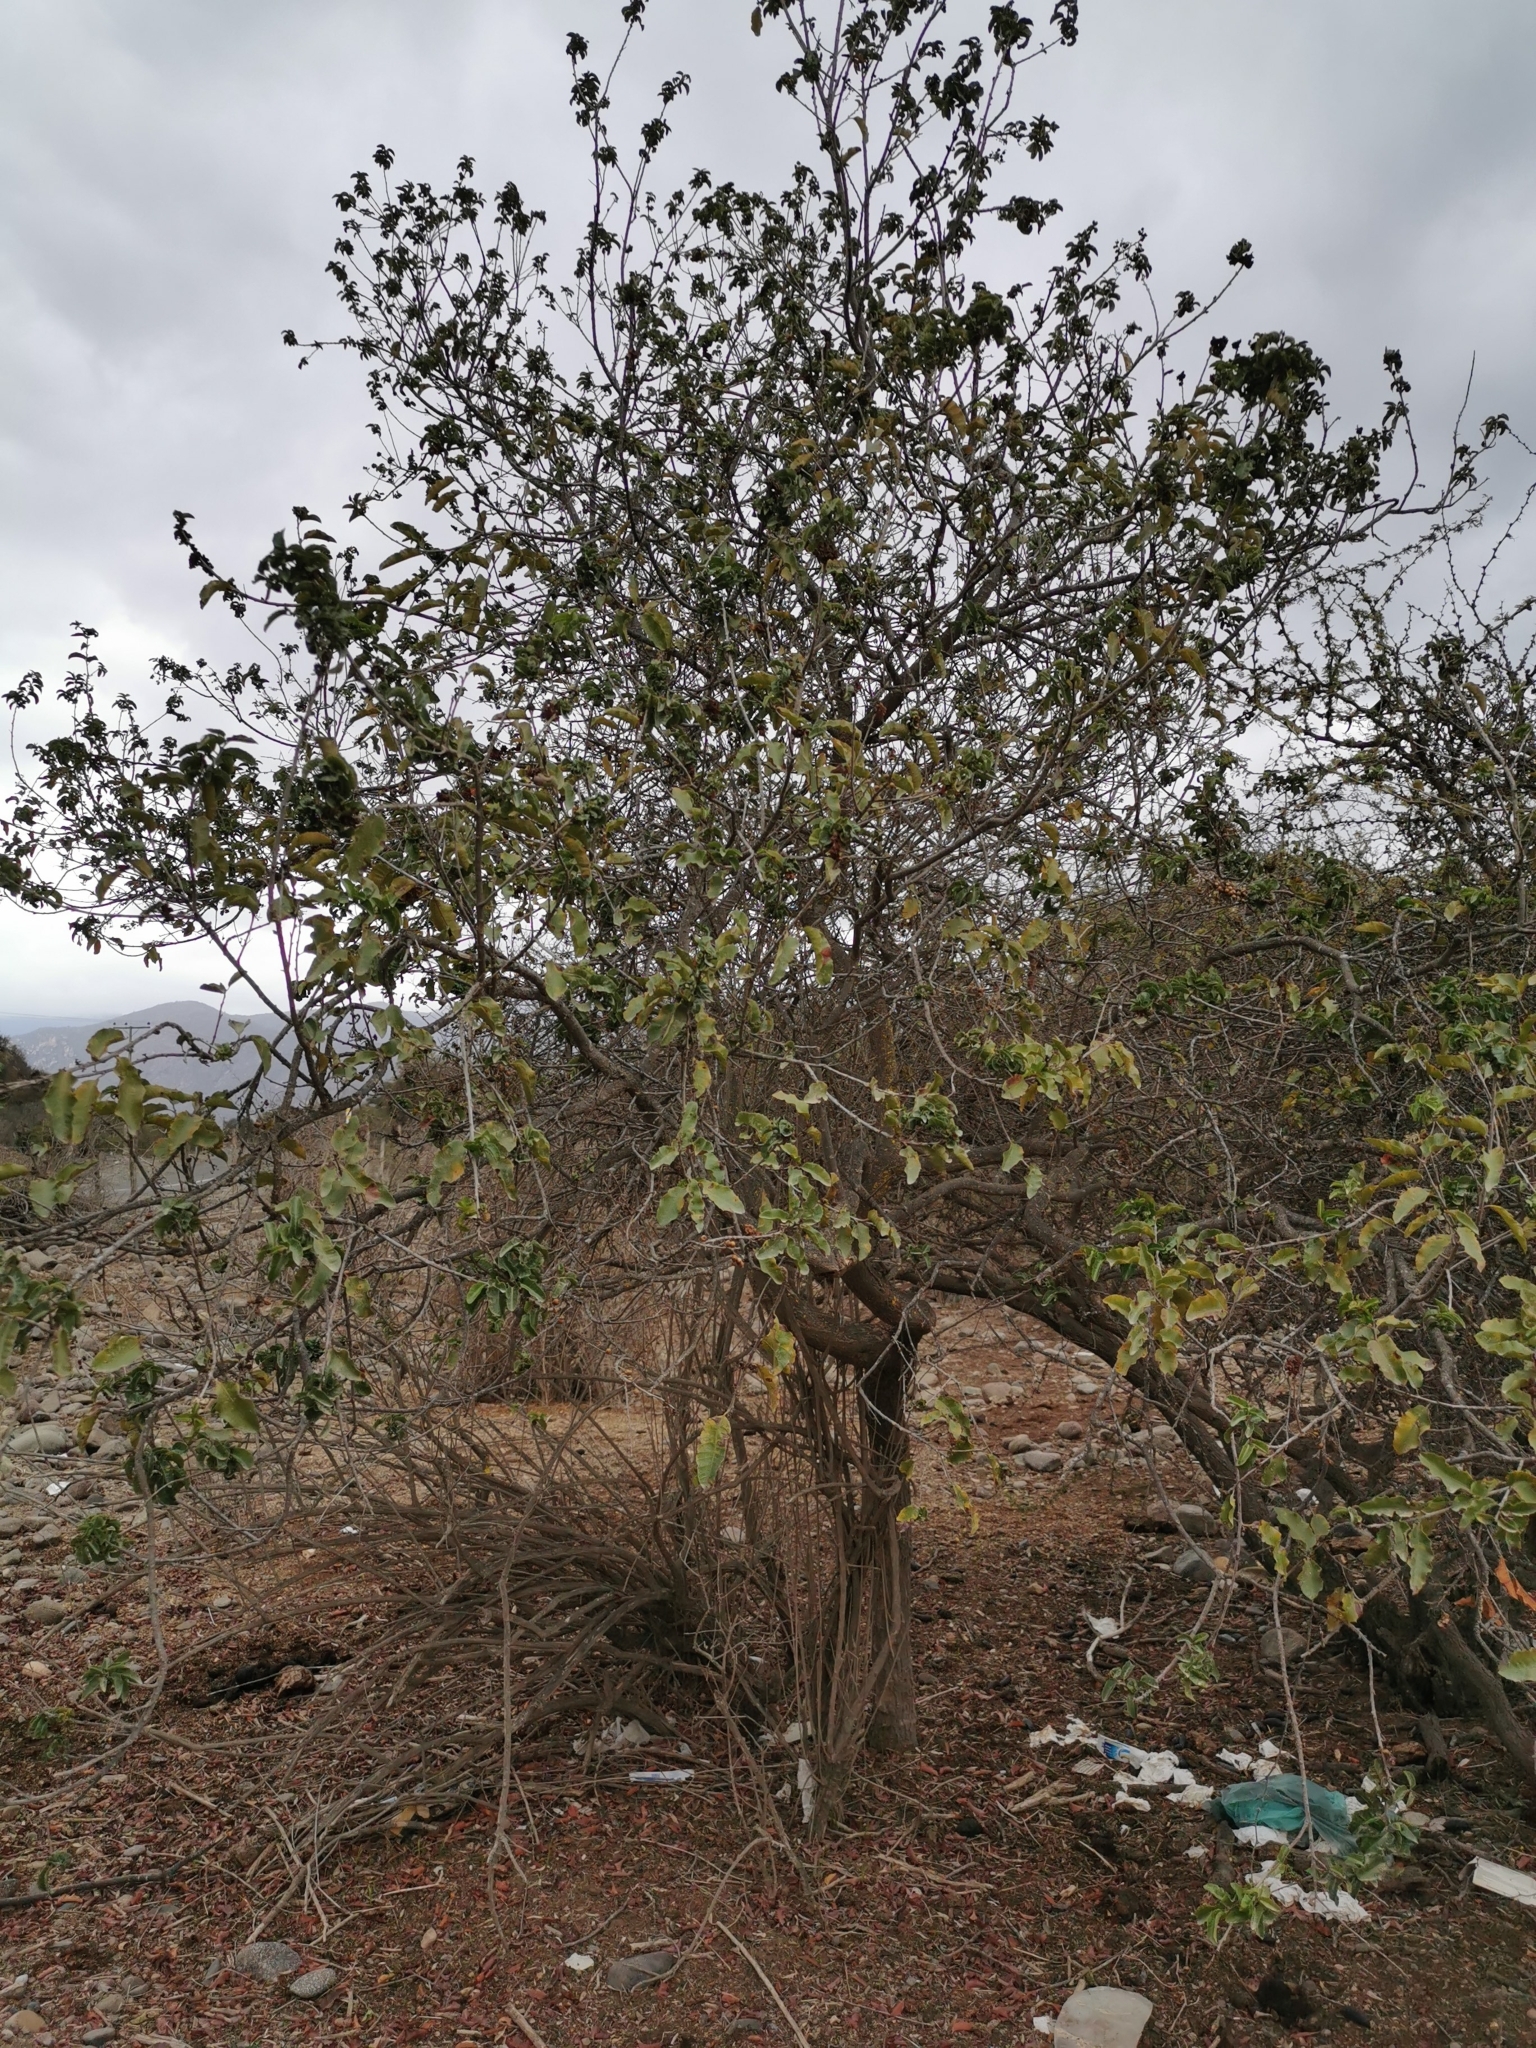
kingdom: Plantae
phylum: Tracheophyta
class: Magnoliopsida
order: Sapindales
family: Anacardiaceae
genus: Schinus
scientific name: Schinus latifolia
